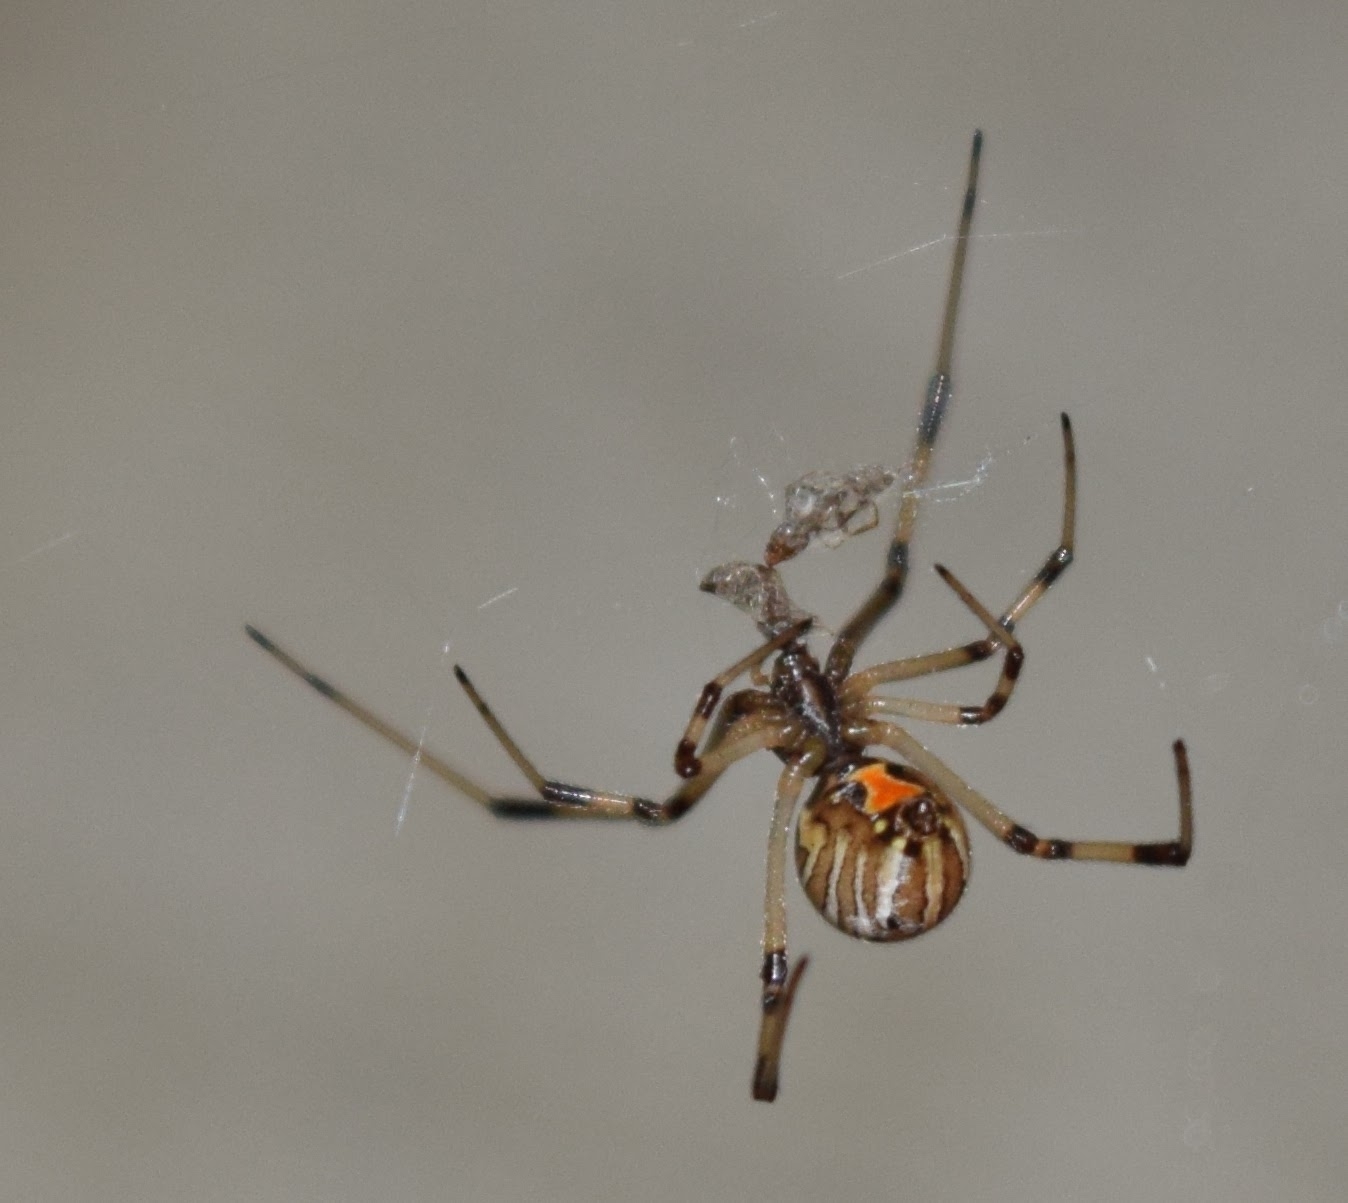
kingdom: Animalia
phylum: Arthropoda
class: Arachnida
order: Araneae
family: Theridiidae
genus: Latrodectus
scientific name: Latrodectus geometricus
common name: Brown widow spider
